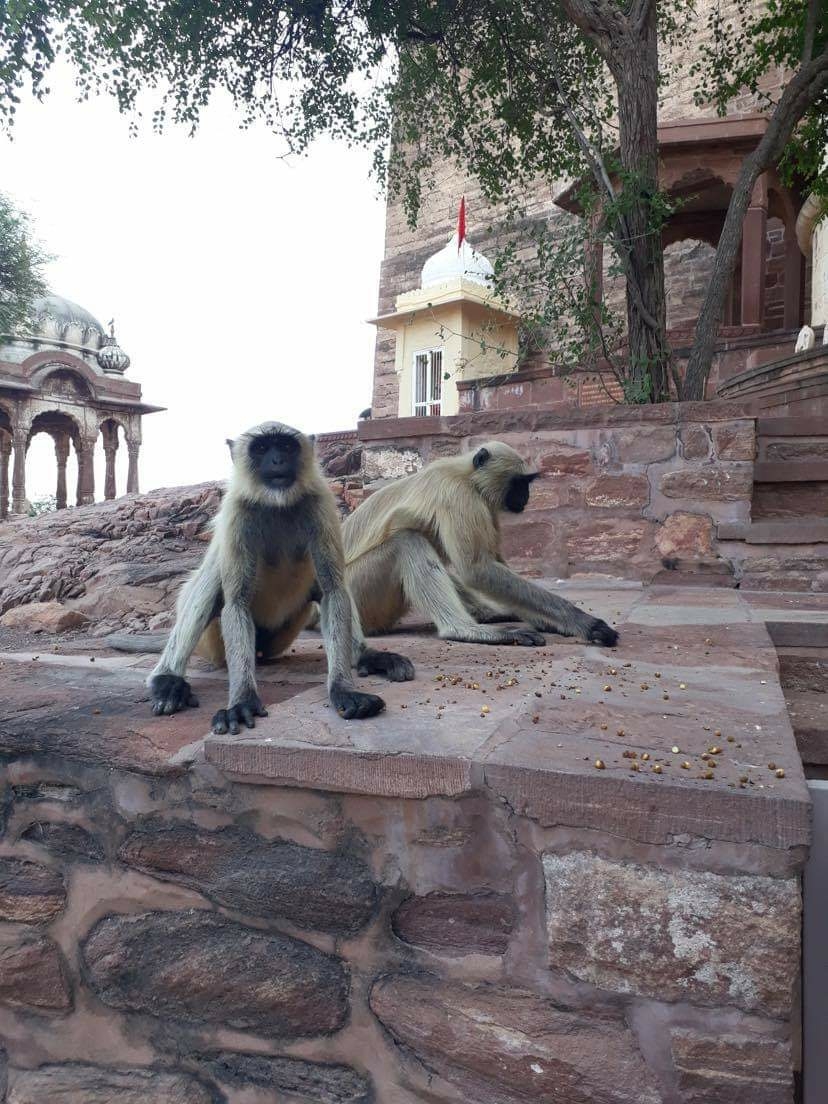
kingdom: Animalia
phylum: Chordata
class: Mammalia
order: Primates
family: Cercopithecidae
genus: Semnopithecus
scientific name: Semnopithecus entellus
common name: Northern plains gray langur
